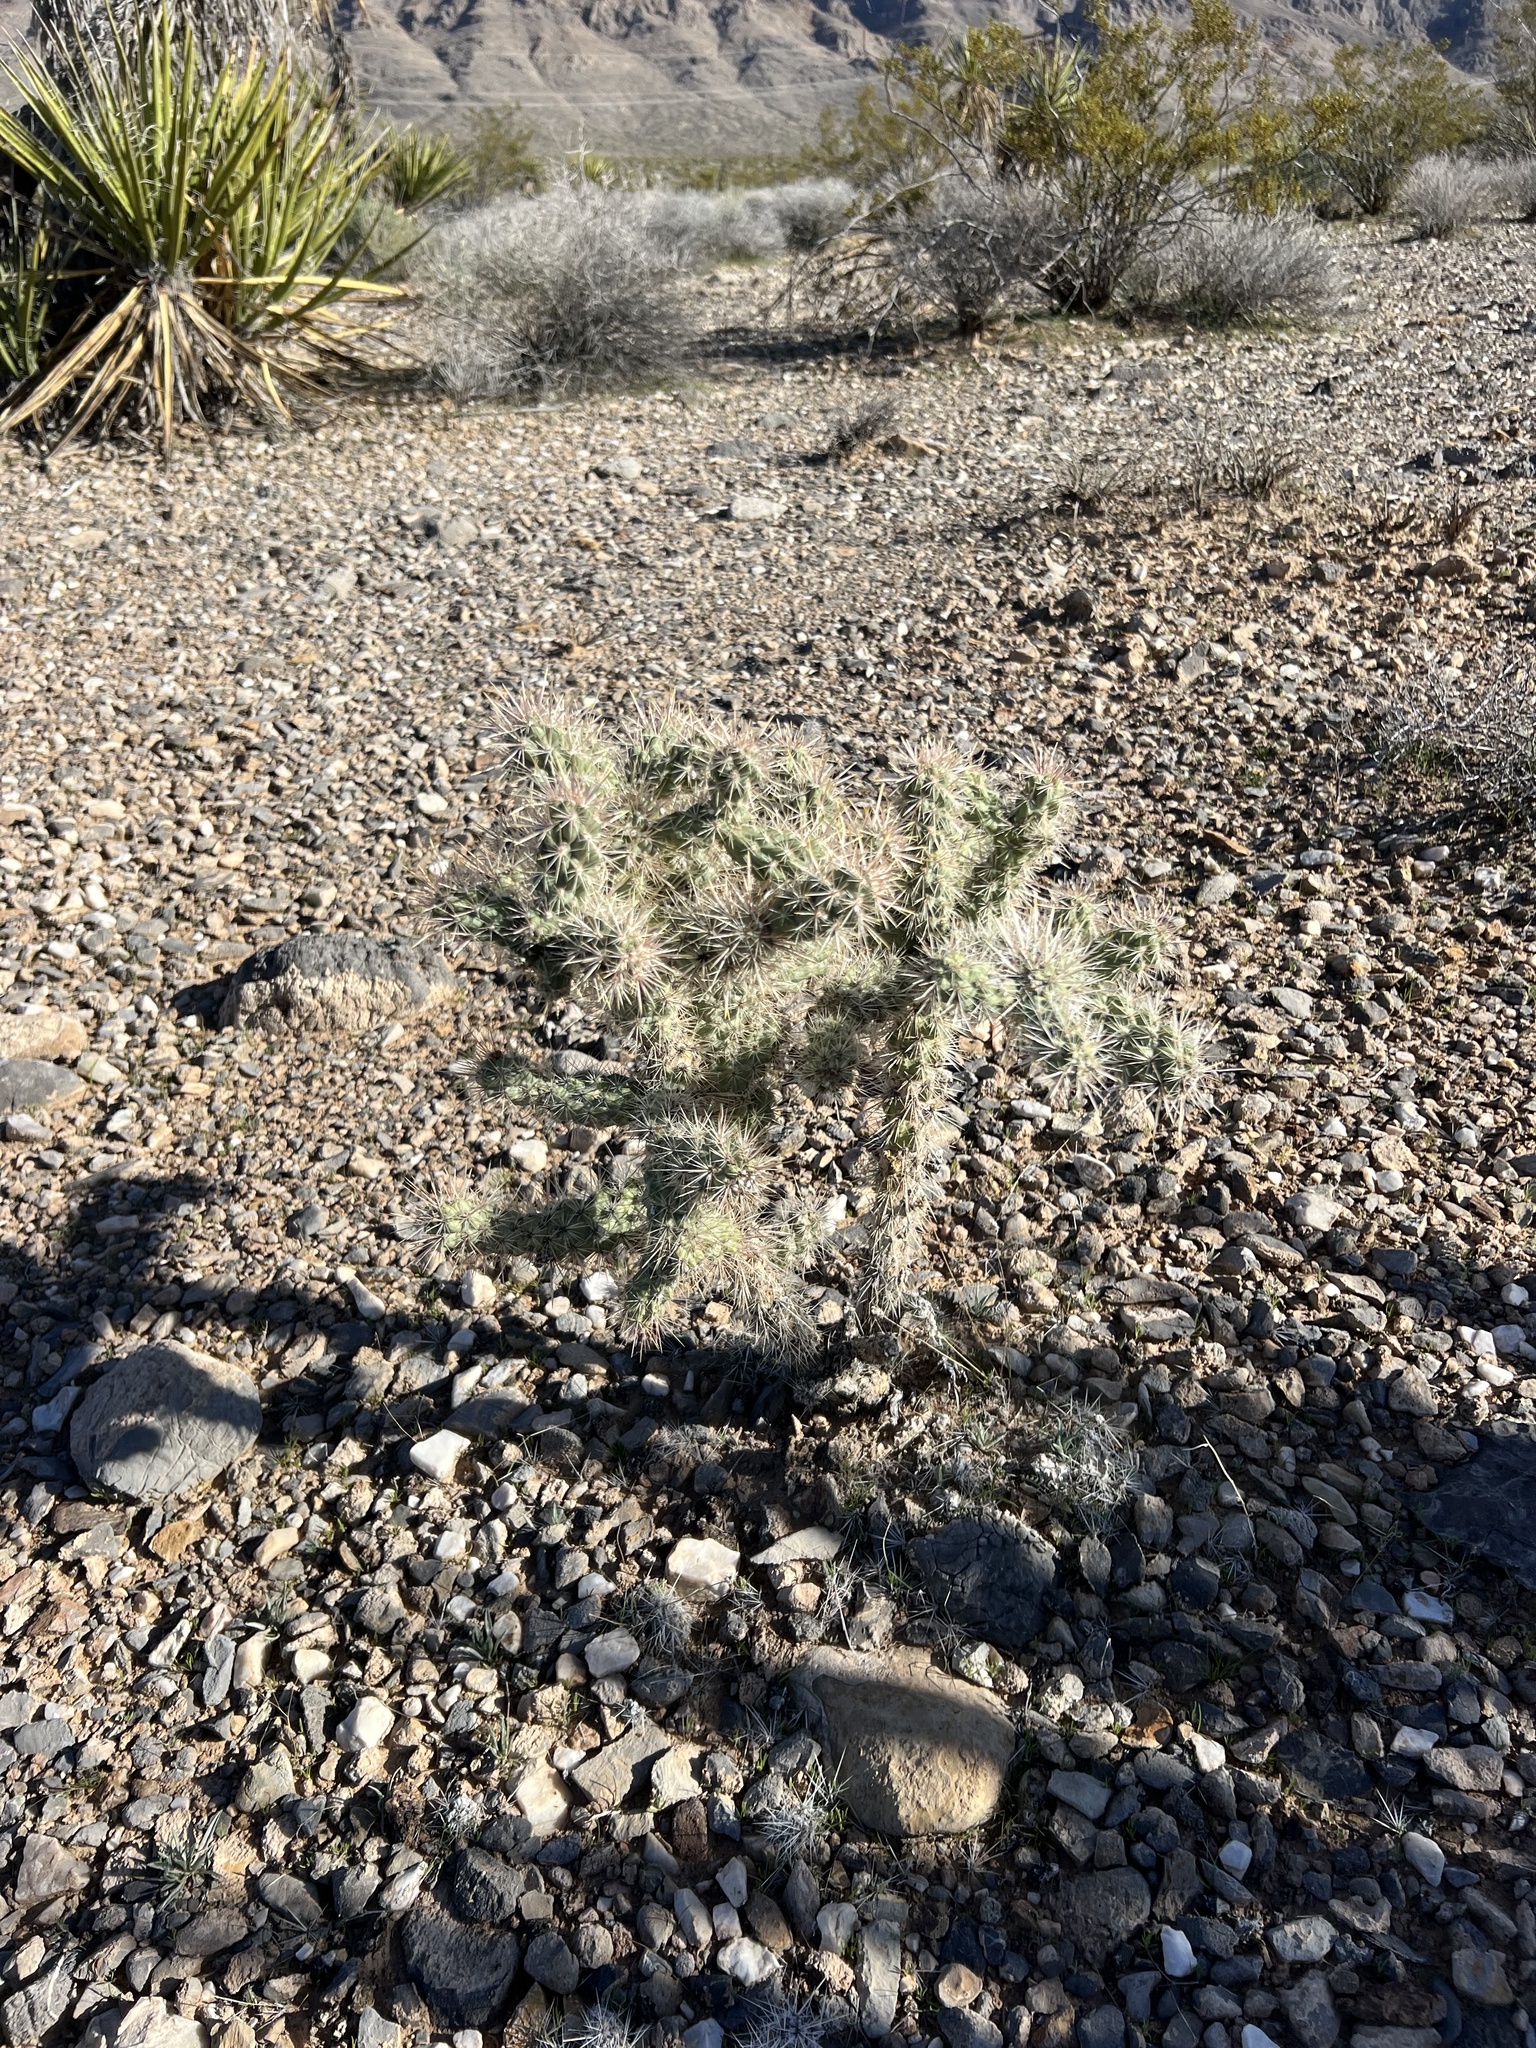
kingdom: Plantae
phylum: Tracheophyta
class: Magnoliopsida
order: Caryophyllales
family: Cactaceae
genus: Cylindropuntia
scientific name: Cylindropuntia echinocarpa
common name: Ground cholla
